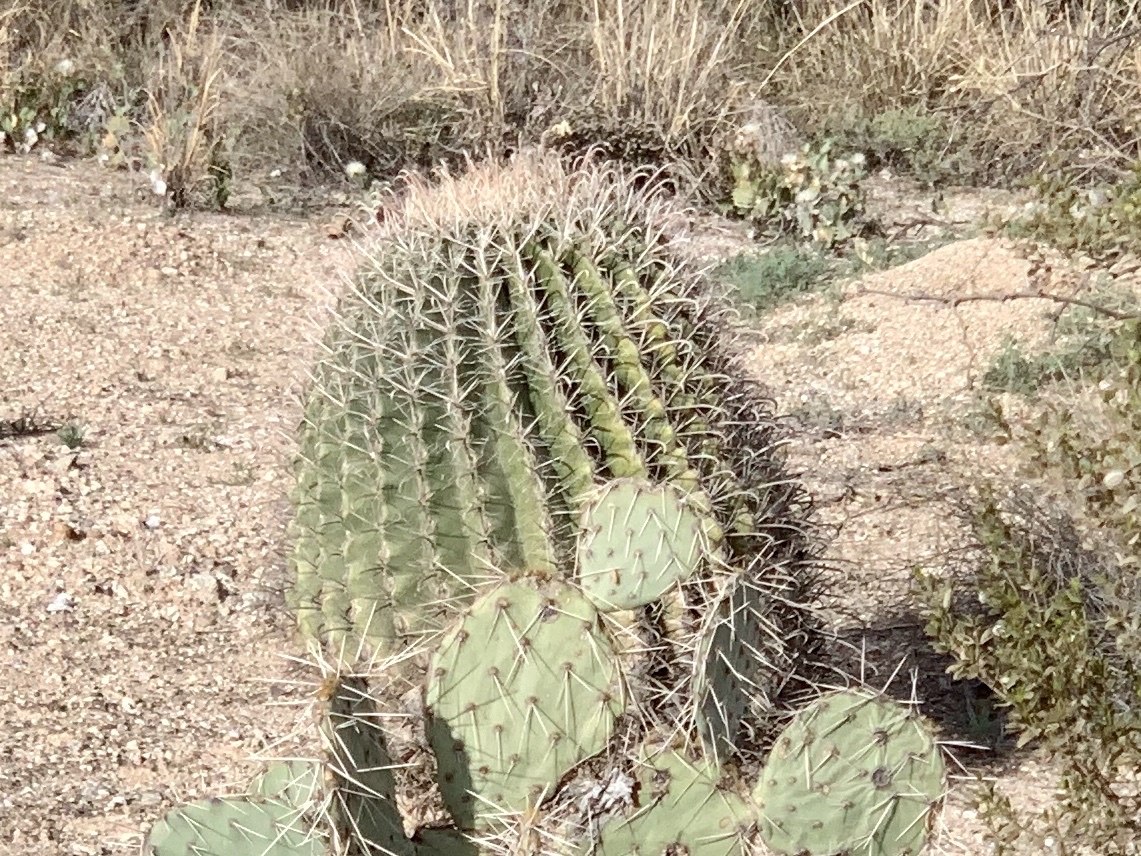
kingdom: Plantae
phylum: Tracheophyta
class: Magnoliopsida
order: Caryophyllales
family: Cactaceae
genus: Ferocactus
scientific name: Ferocactus wislizeni
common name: Candy barrel cactus
